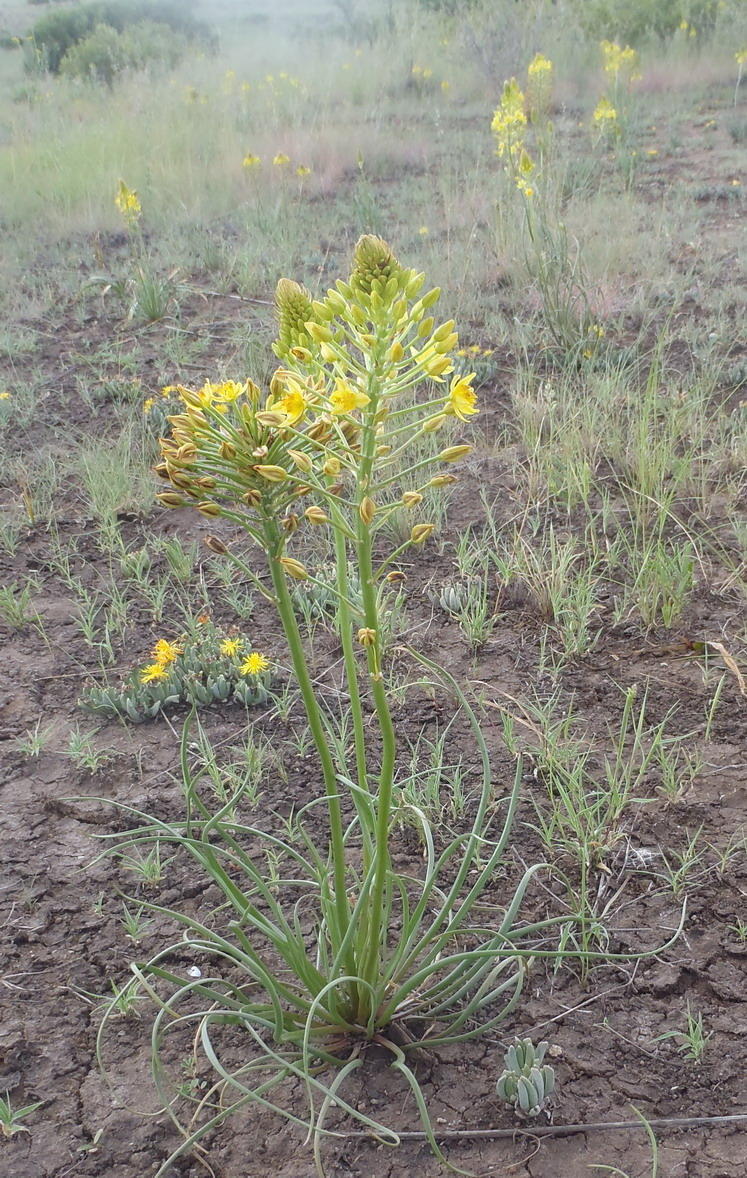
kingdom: Plantae
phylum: Tracheophyta
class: Liliopsida
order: Asparagales
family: Asphodelaceae
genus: Bulbine
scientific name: Bulbine abyssinica
